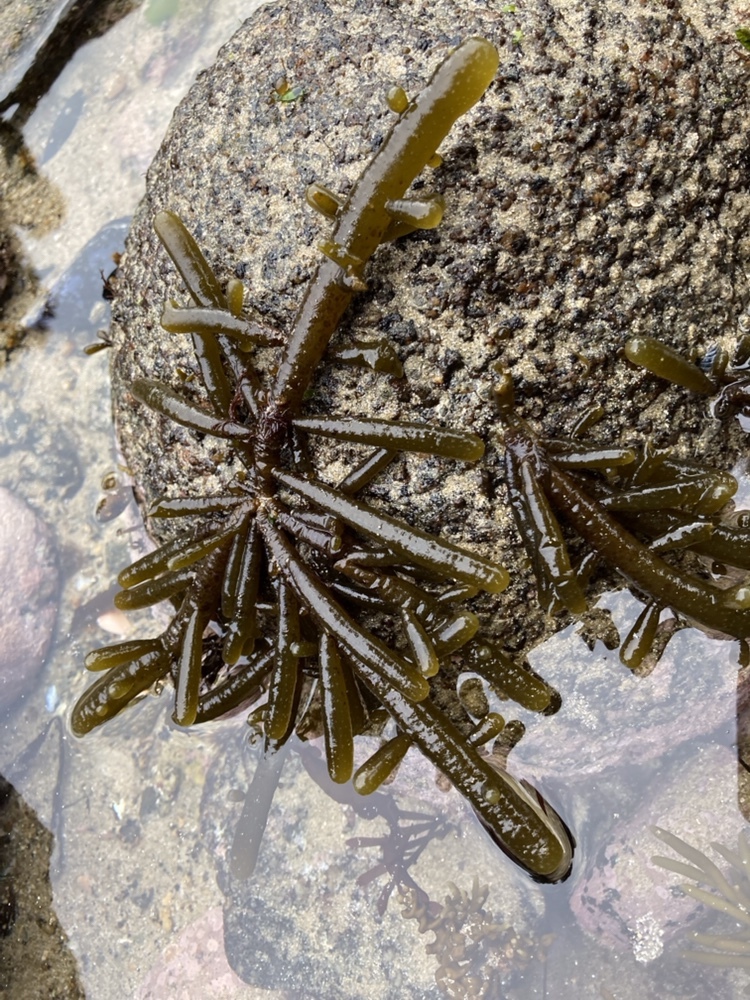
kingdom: Chromista
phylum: Ochrophyta
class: Phaeophyceae
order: Scytothamnales
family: Splachnidiaceae
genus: Splachnidium
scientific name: Splachnidium rugosum
